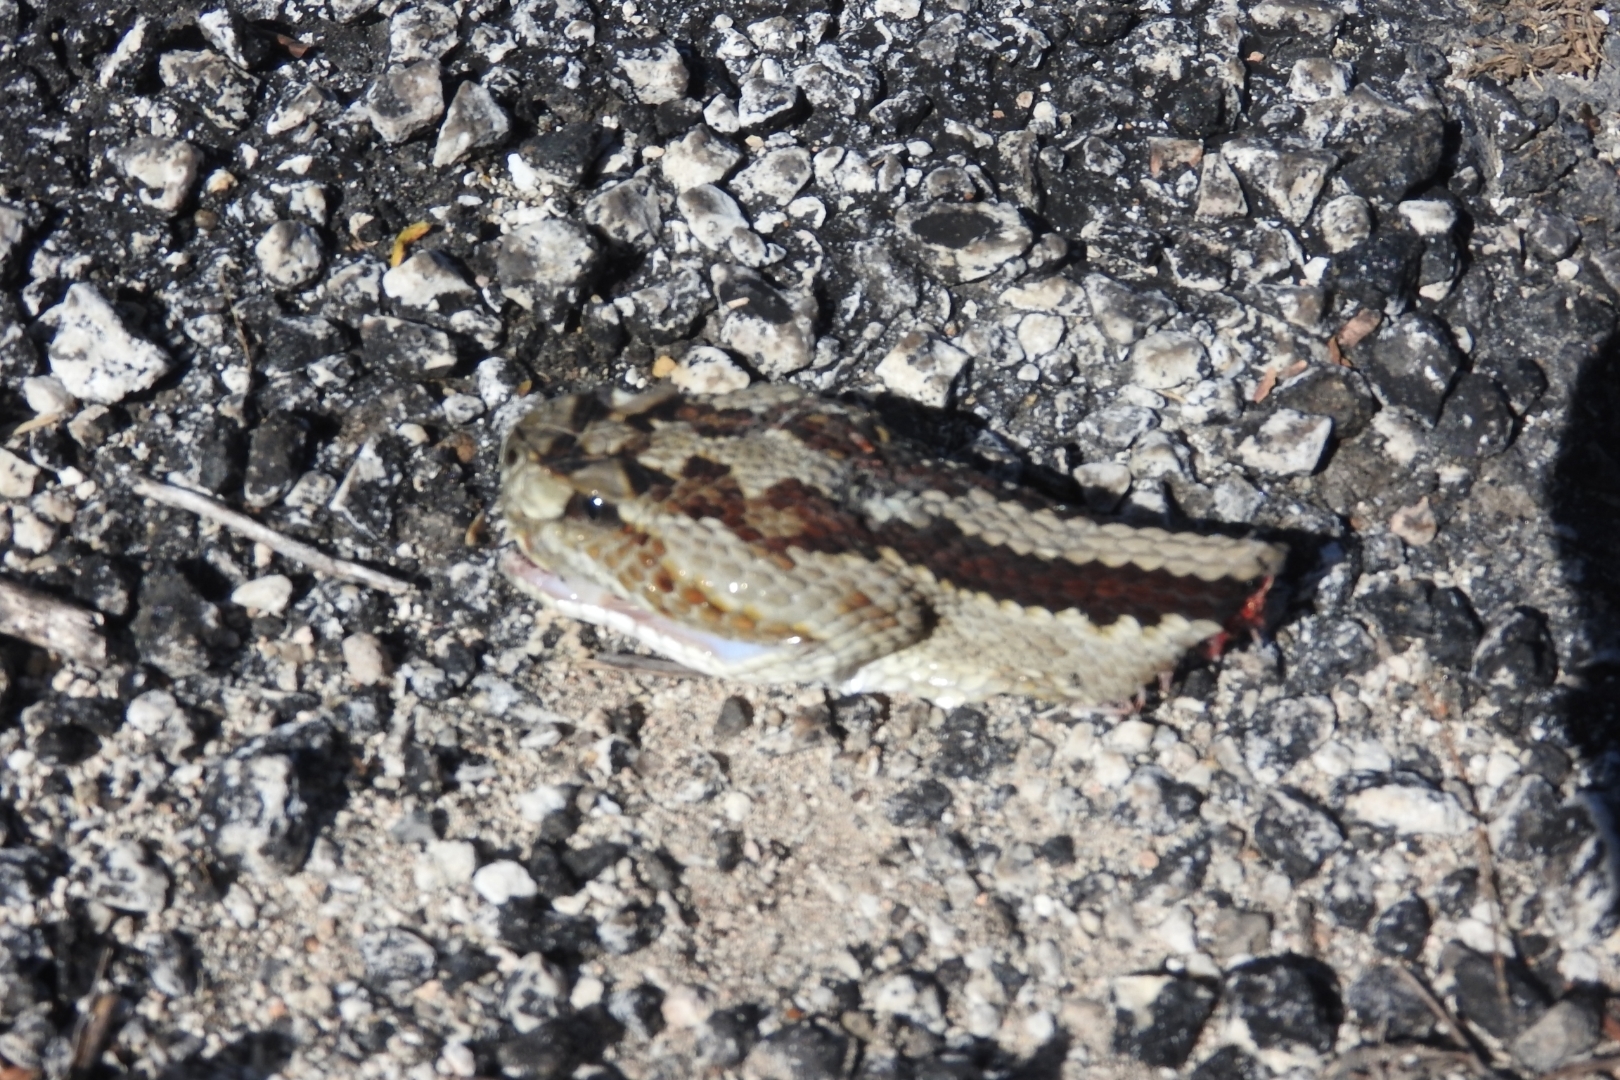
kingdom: Animalia
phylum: Chordata
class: Squamata
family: Viperidae
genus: Crotalus
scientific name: Crotalus tzabcan
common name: Yucatan neotropical rattlesnake
